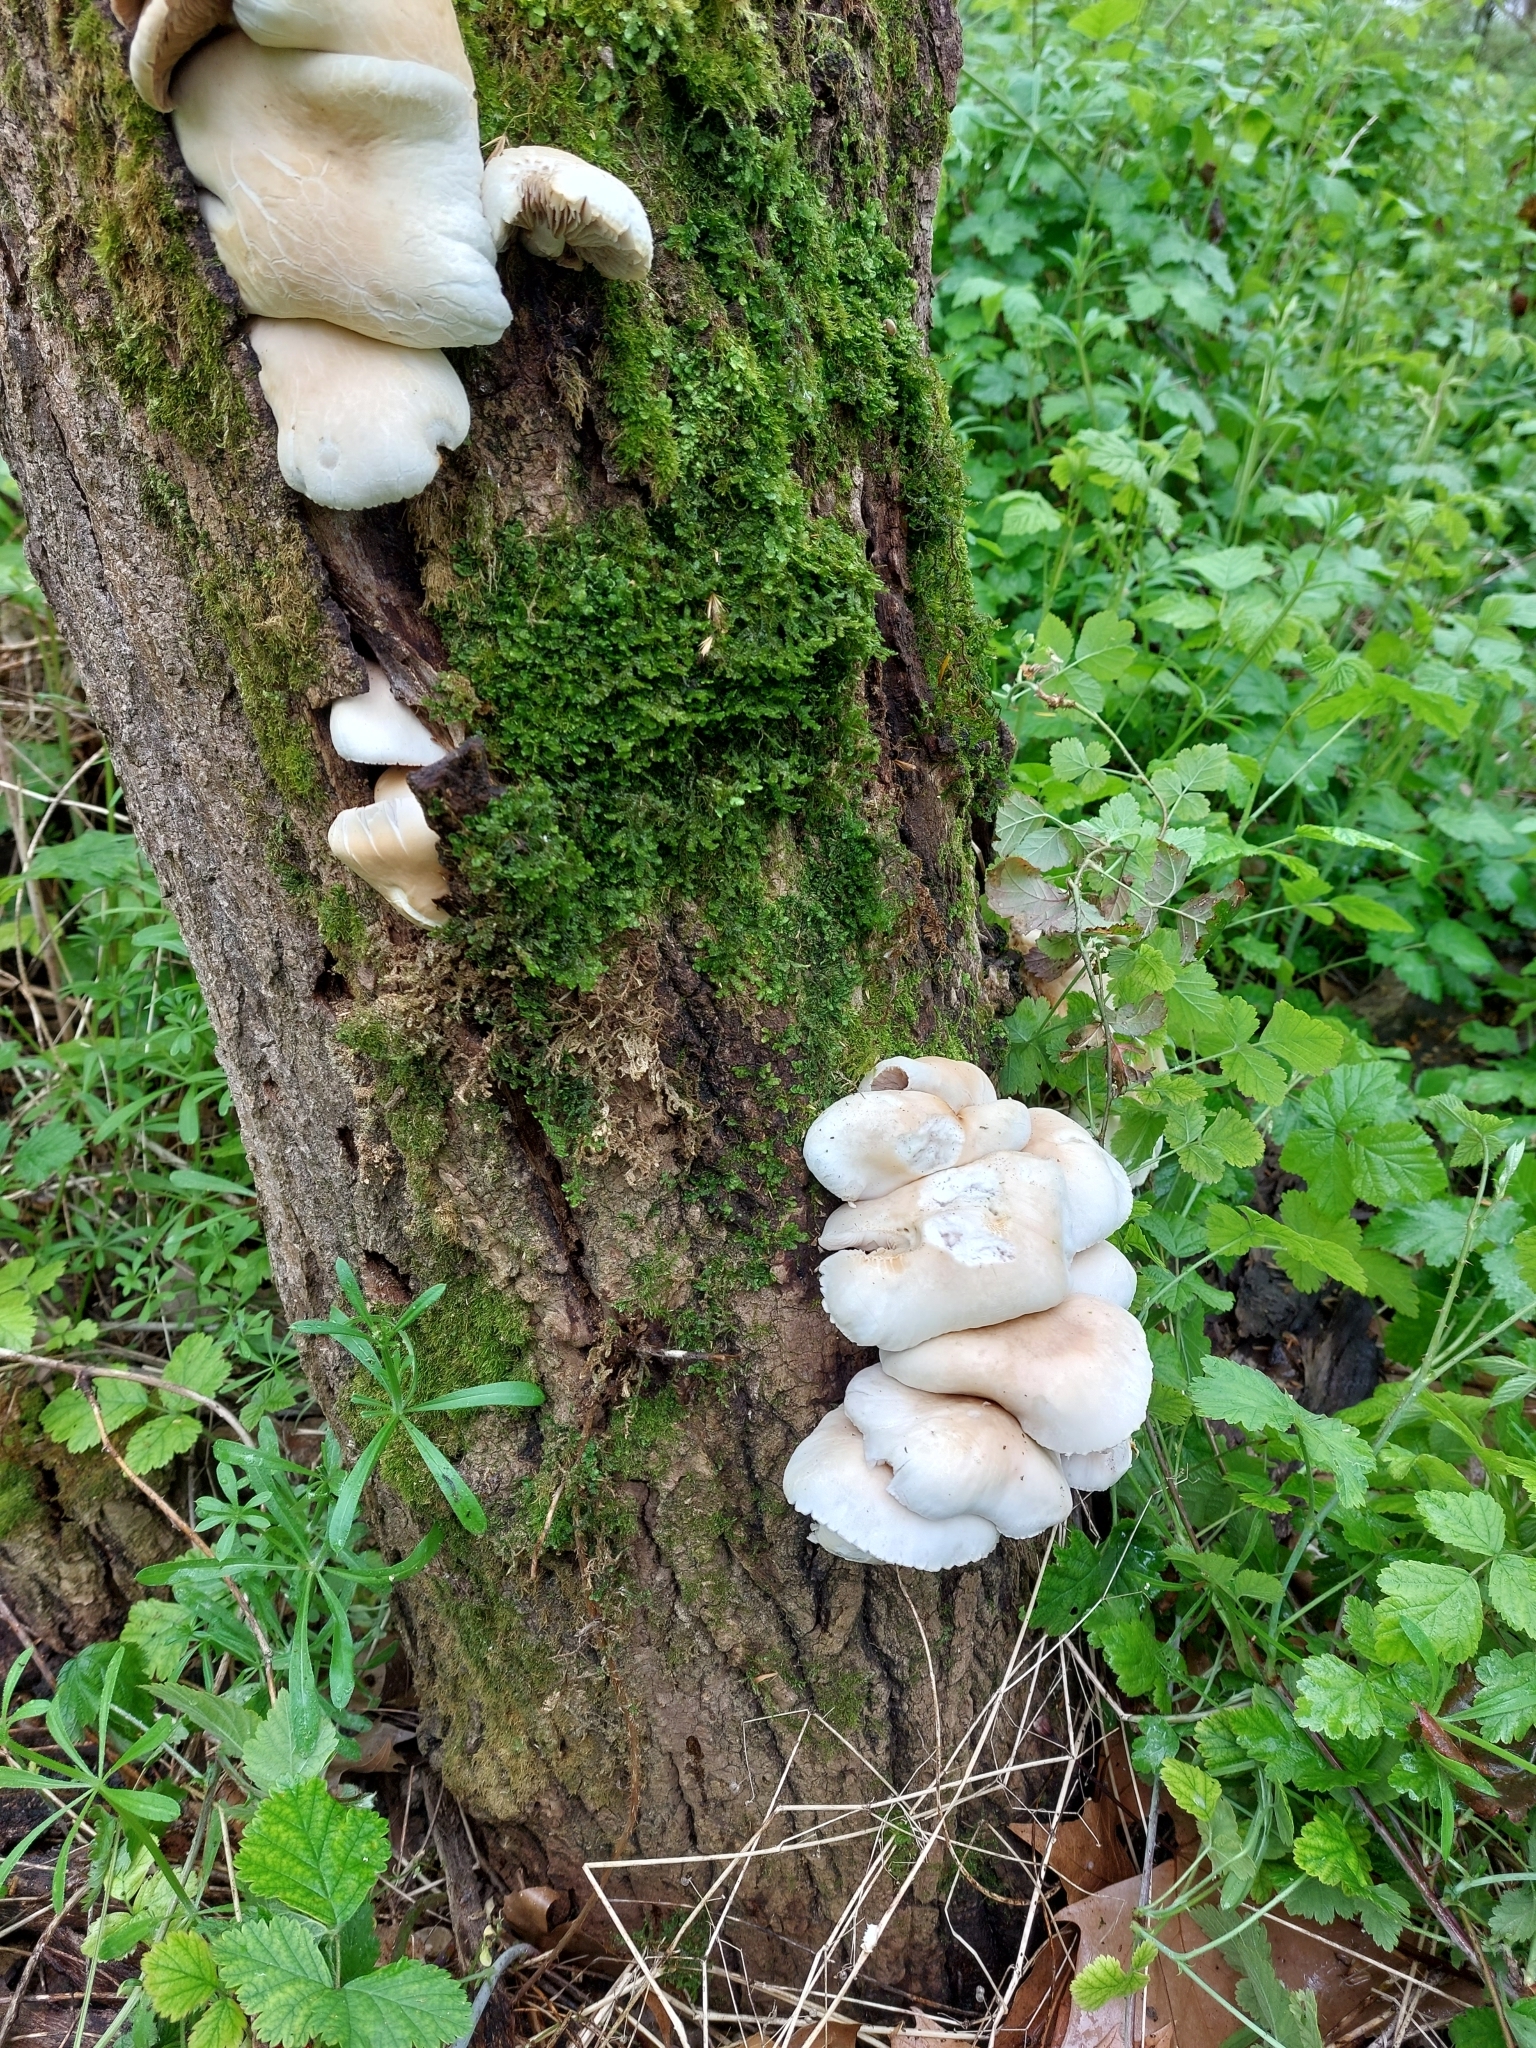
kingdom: Fungi
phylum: Basidiomycota
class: Agaricomycetes
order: Agaricales
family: Tubariaceae
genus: Cyclocybe
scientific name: Cyclocybe cylindracea
